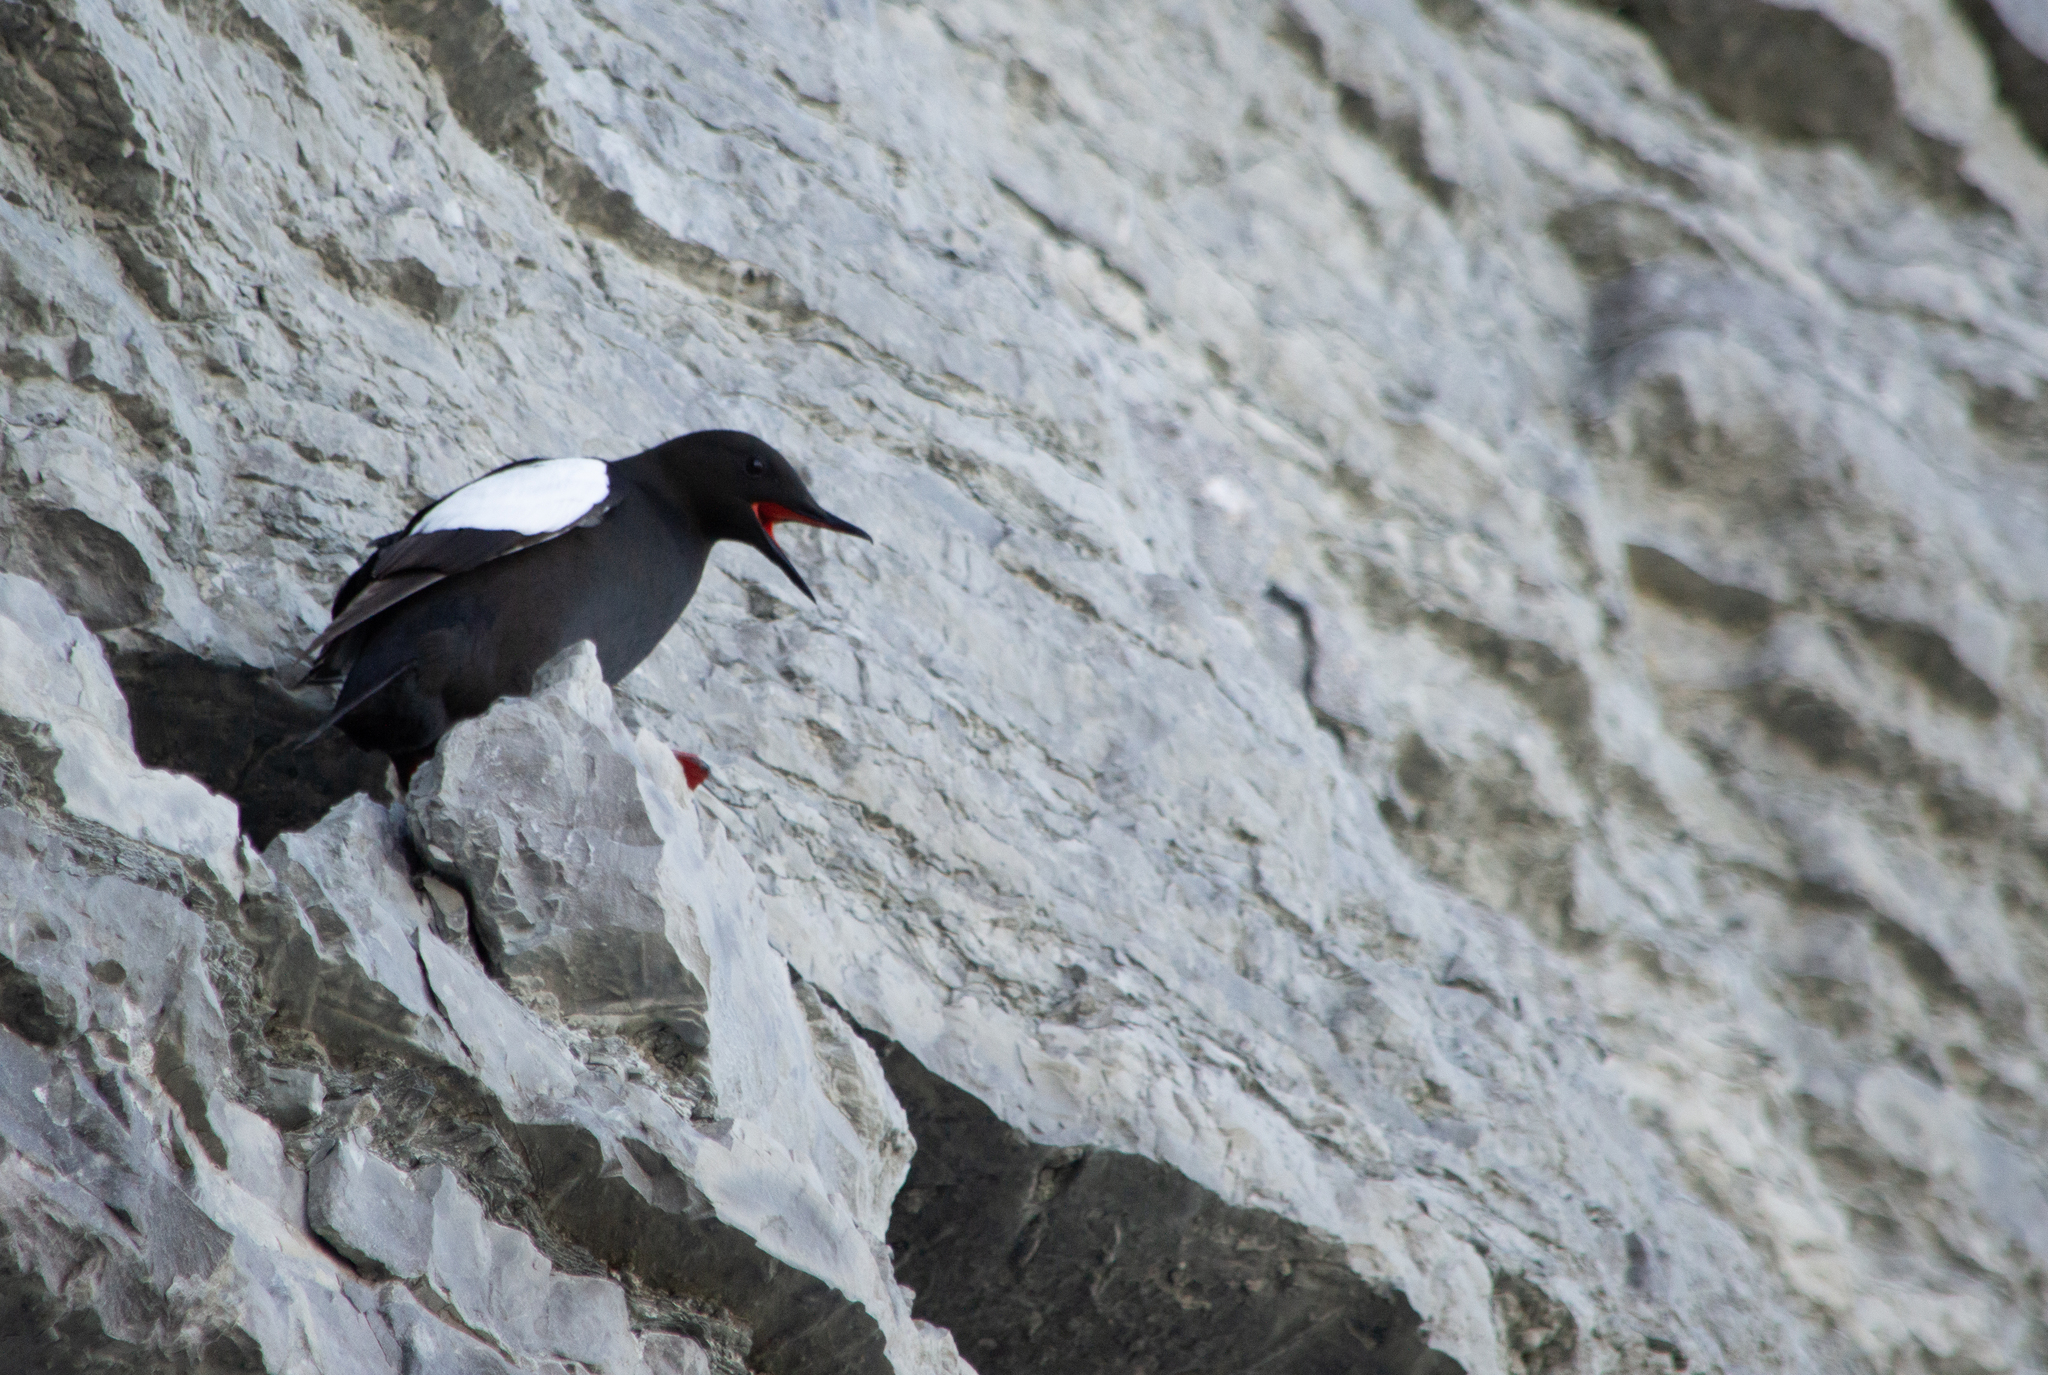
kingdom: Animalia
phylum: Chordata
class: Aves
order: Charadriiformes
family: Alcidae
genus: Cepphus
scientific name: Cepphus grylle
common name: Black guillemot
